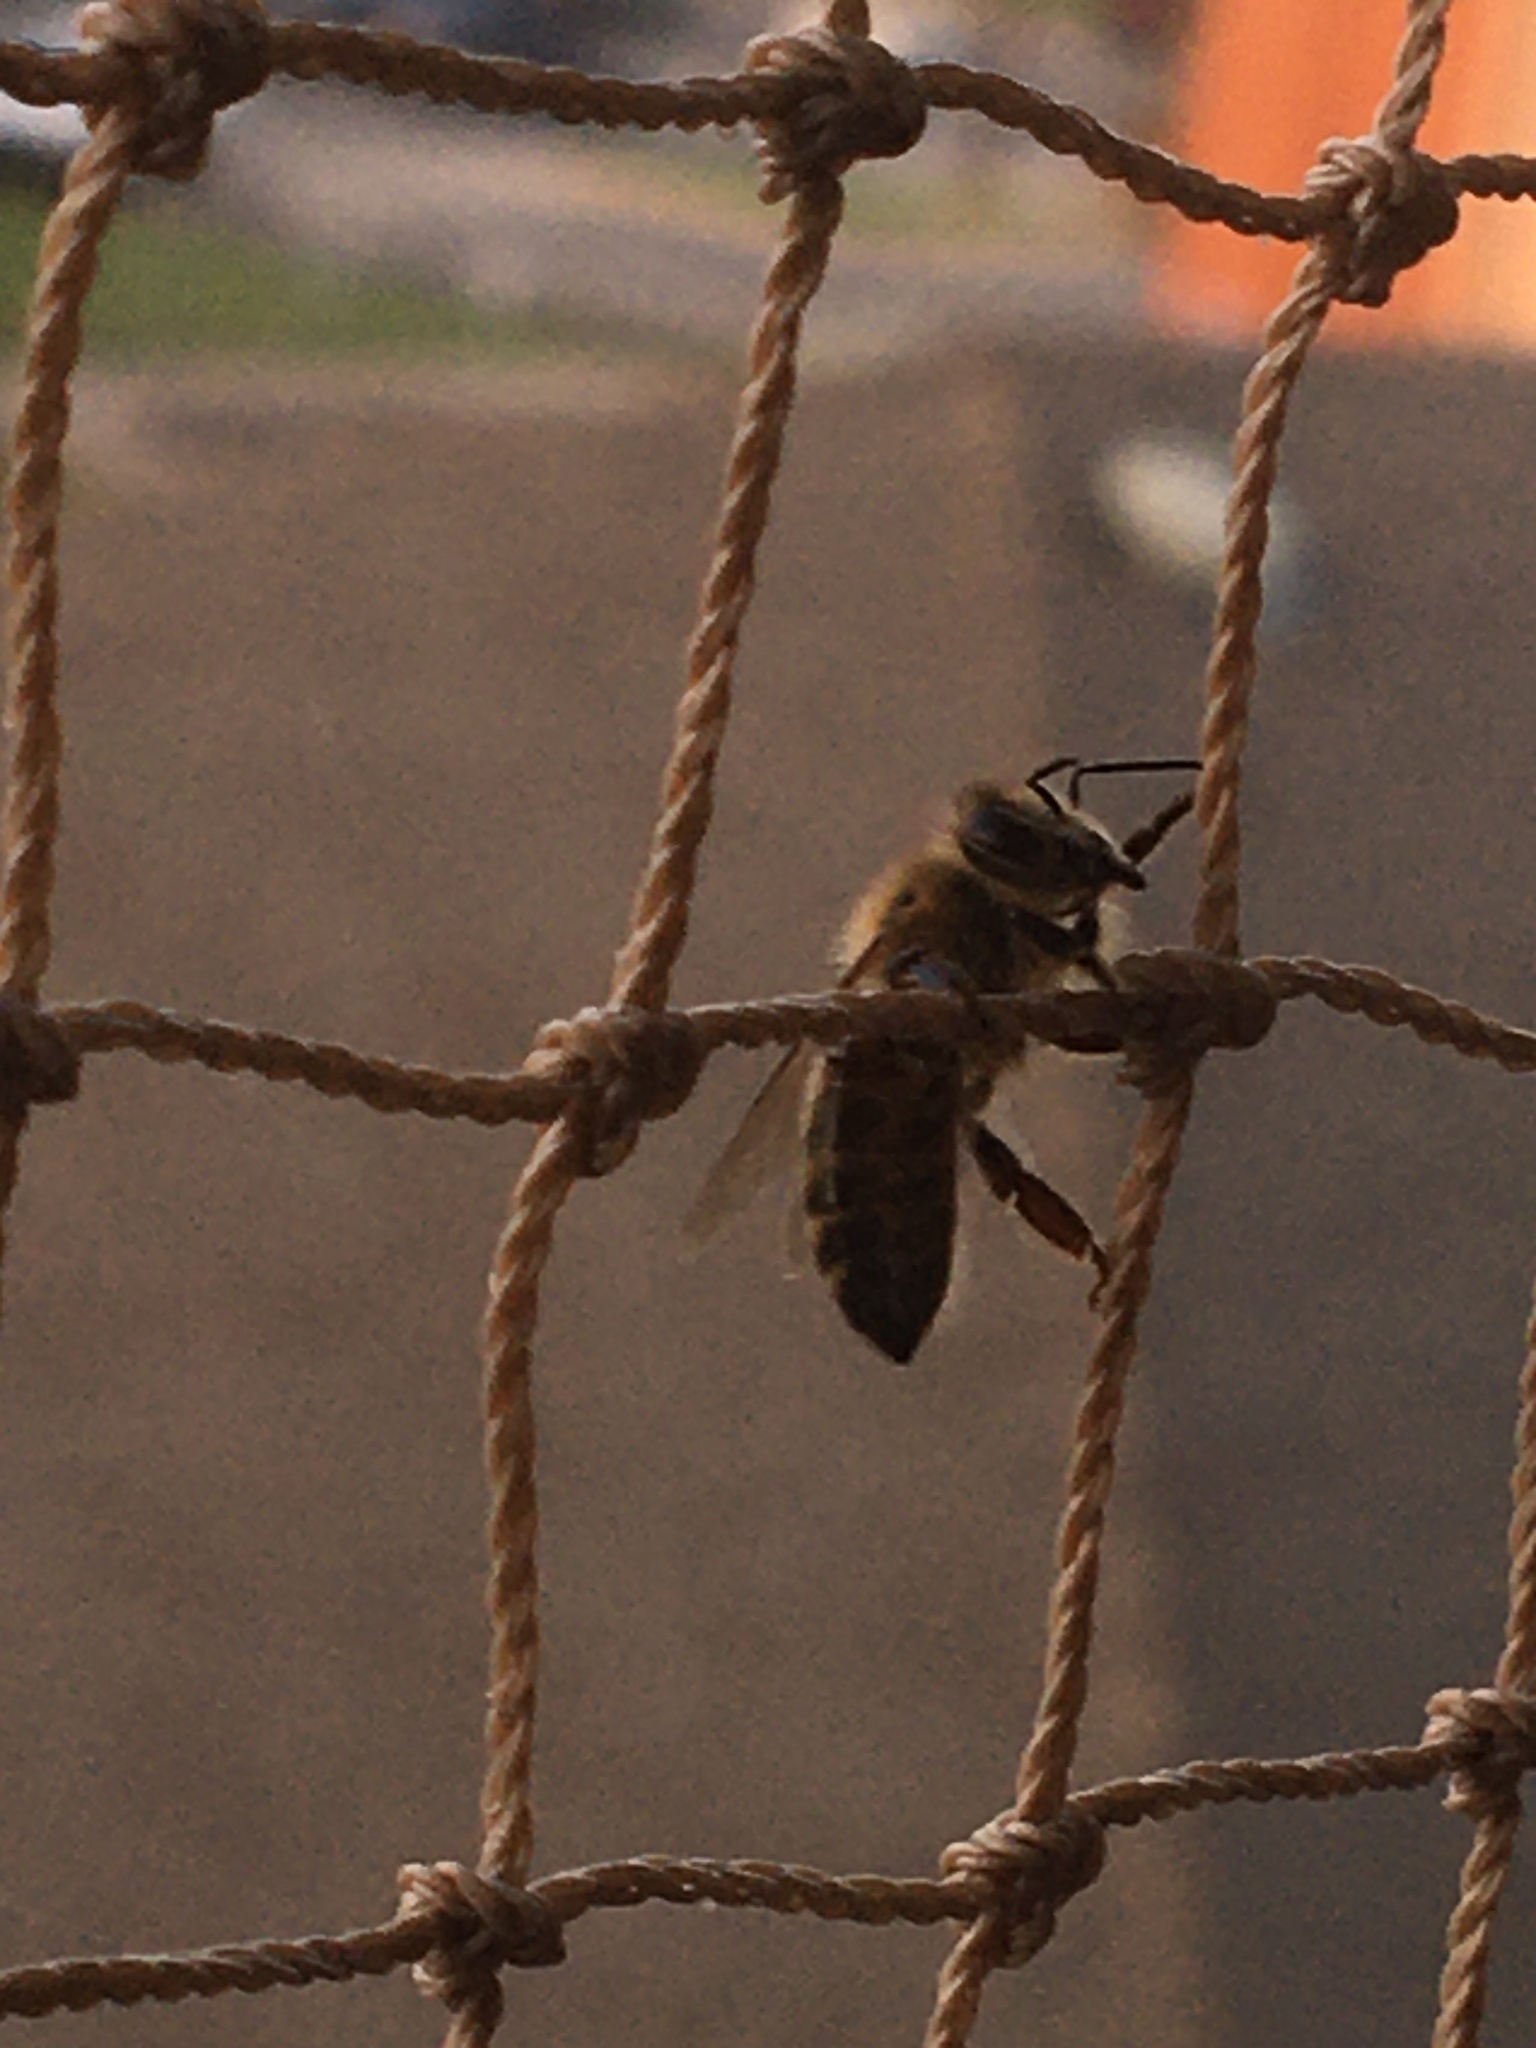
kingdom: Animalia
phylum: Arthropoda
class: Insecta
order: Hymenoptera
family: Apidae
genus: Apis
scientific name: Apis mellifera
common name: Honey bee
